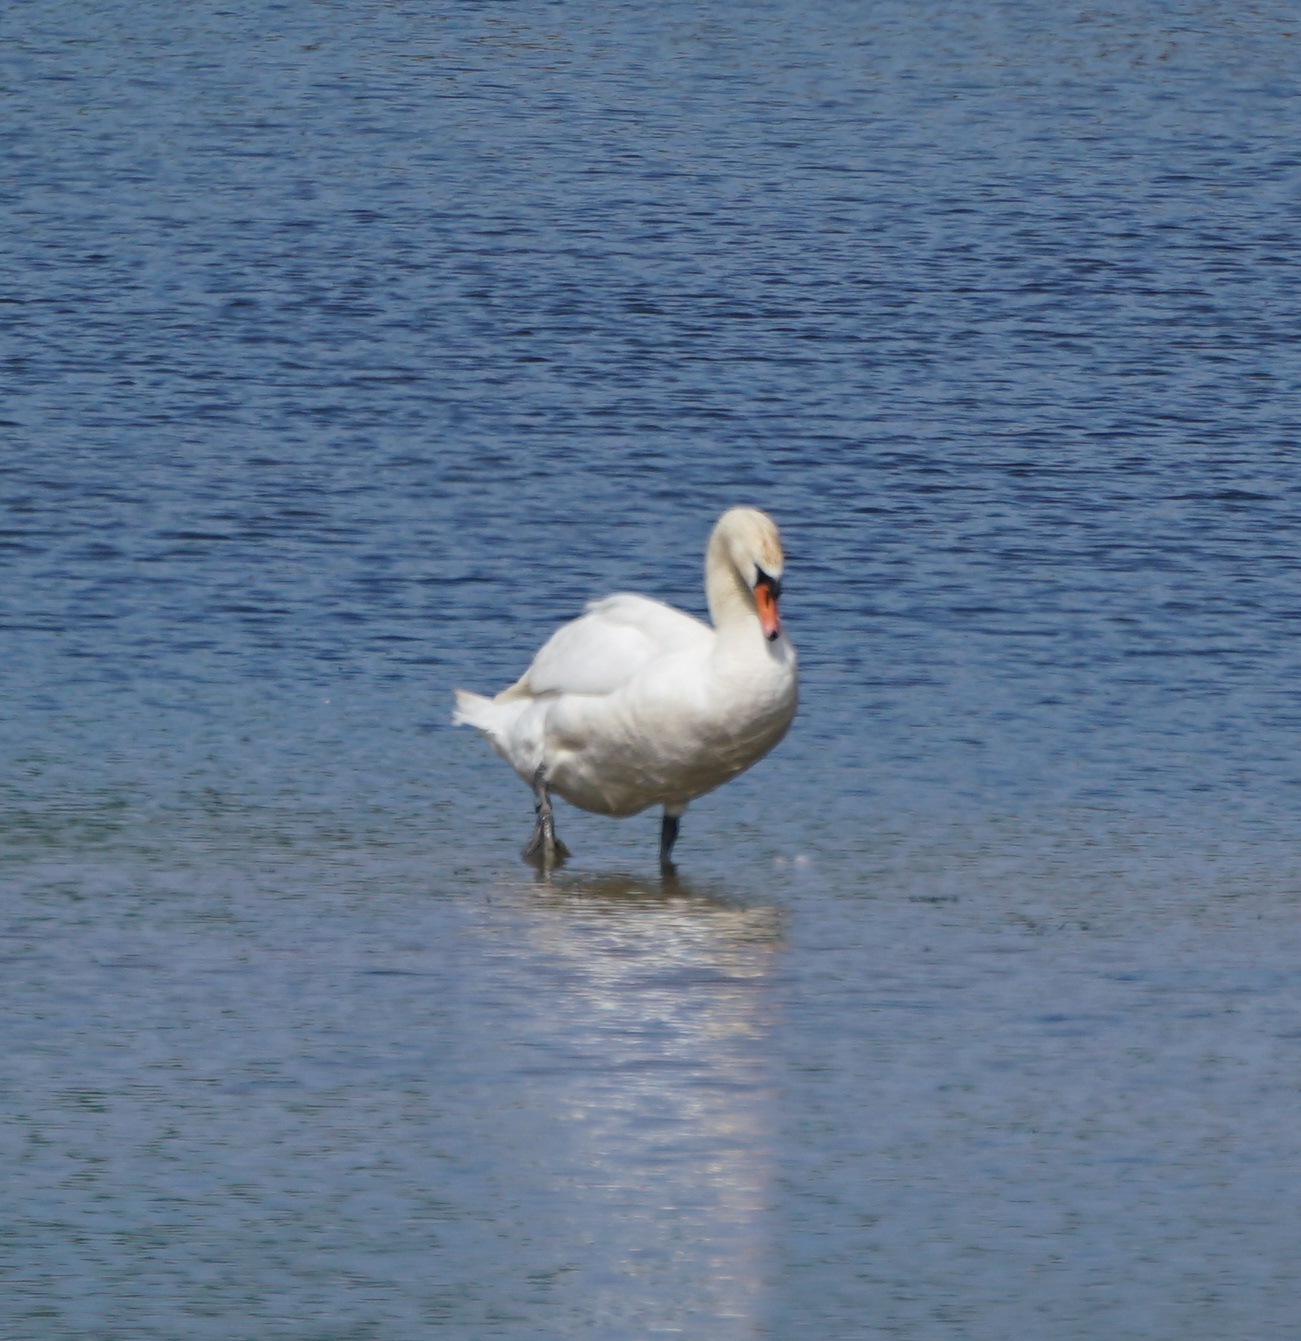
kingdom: Animalia
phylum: Chordata
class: Aves
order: Anseriformes
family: Anatidae
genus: Cygnus
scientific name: Cygnus olor
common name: Mute swan
